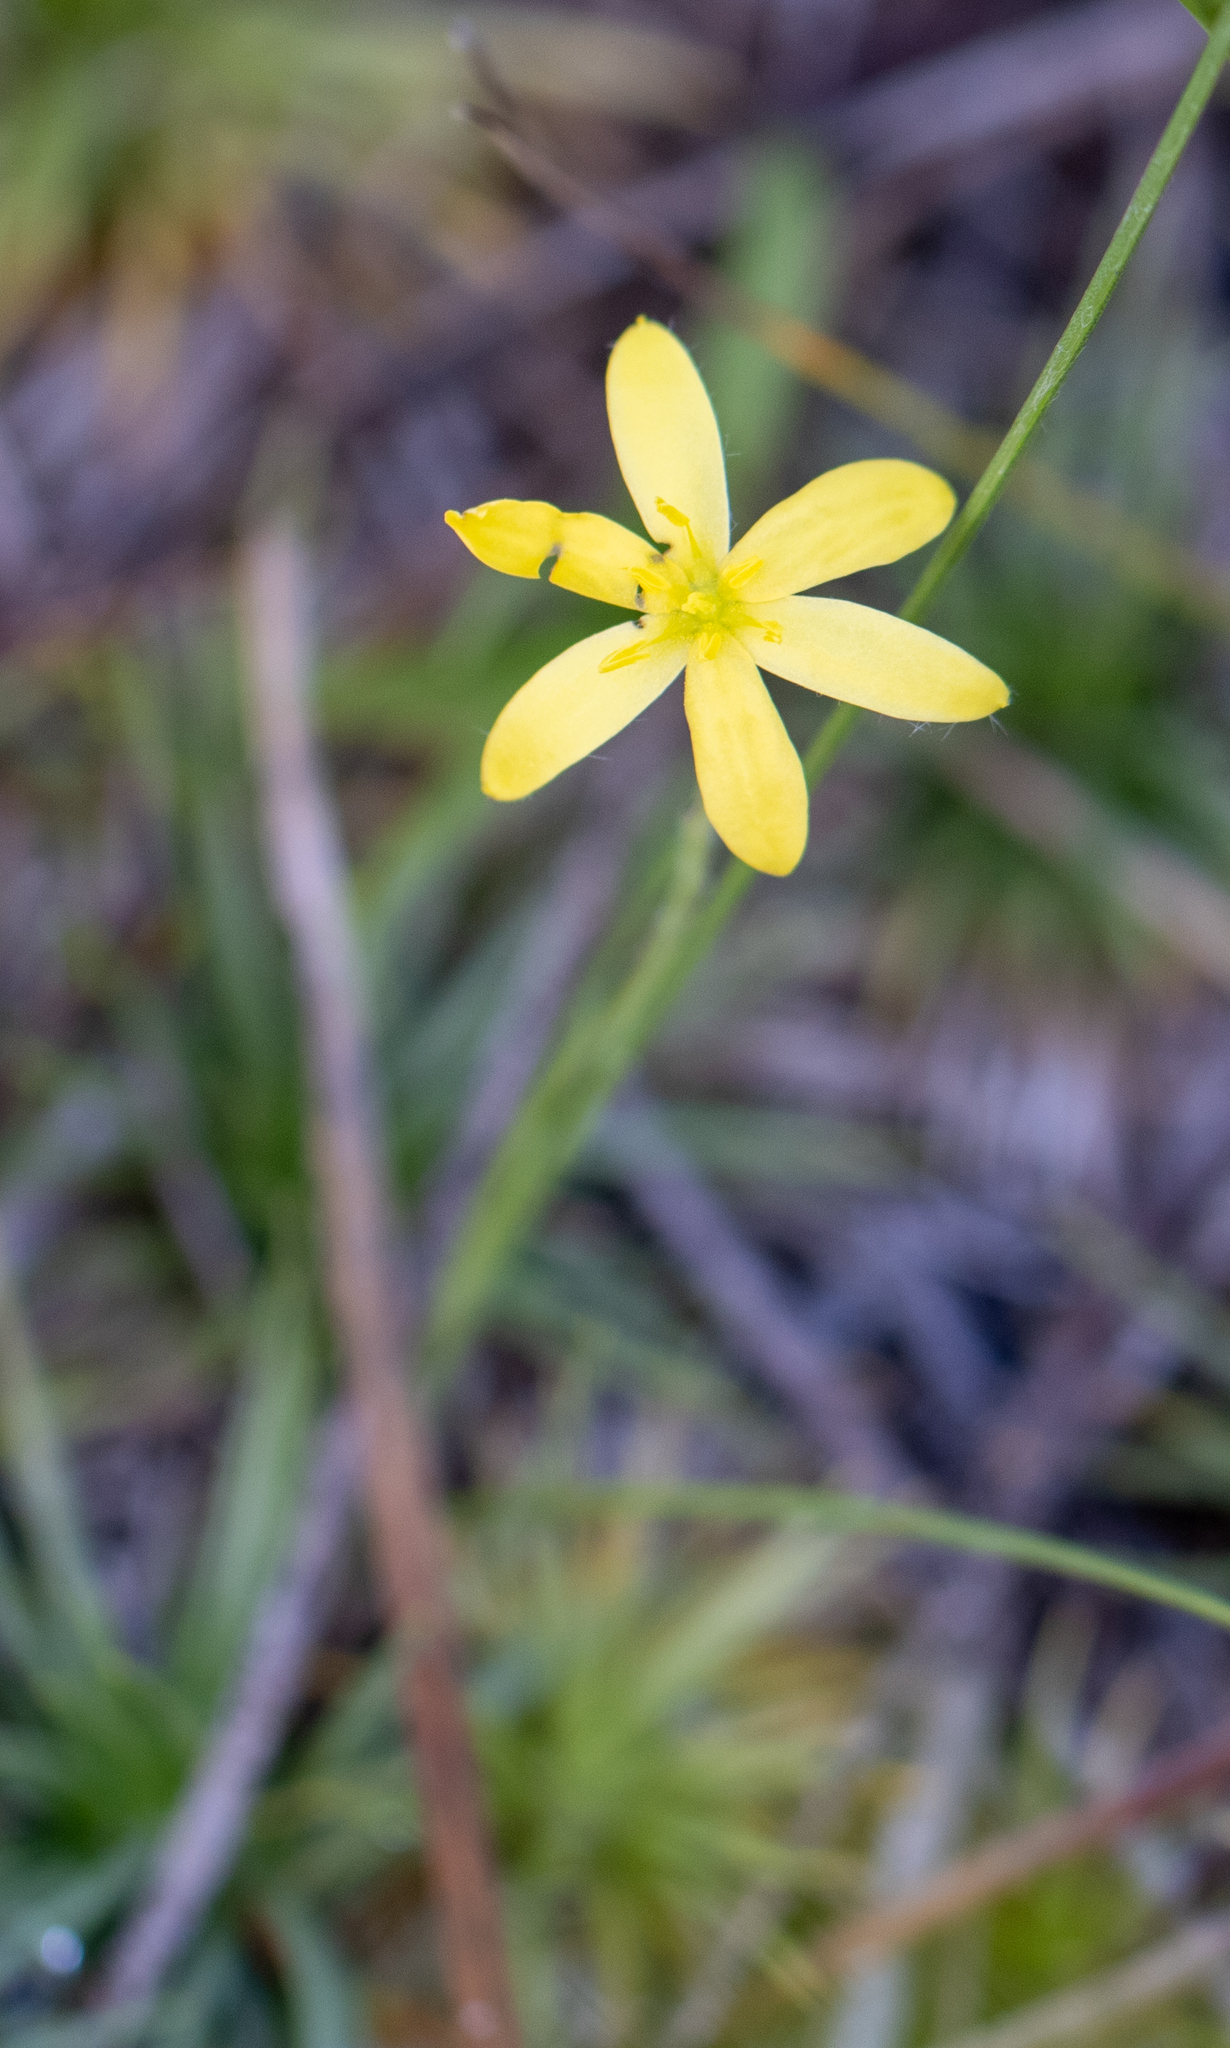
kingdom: Plantae
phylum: Tracheophyta
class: Liliopsida
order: Asparagales
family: Hypoxidaceae
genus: Hypoxis
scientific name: Hypoxis juncea
